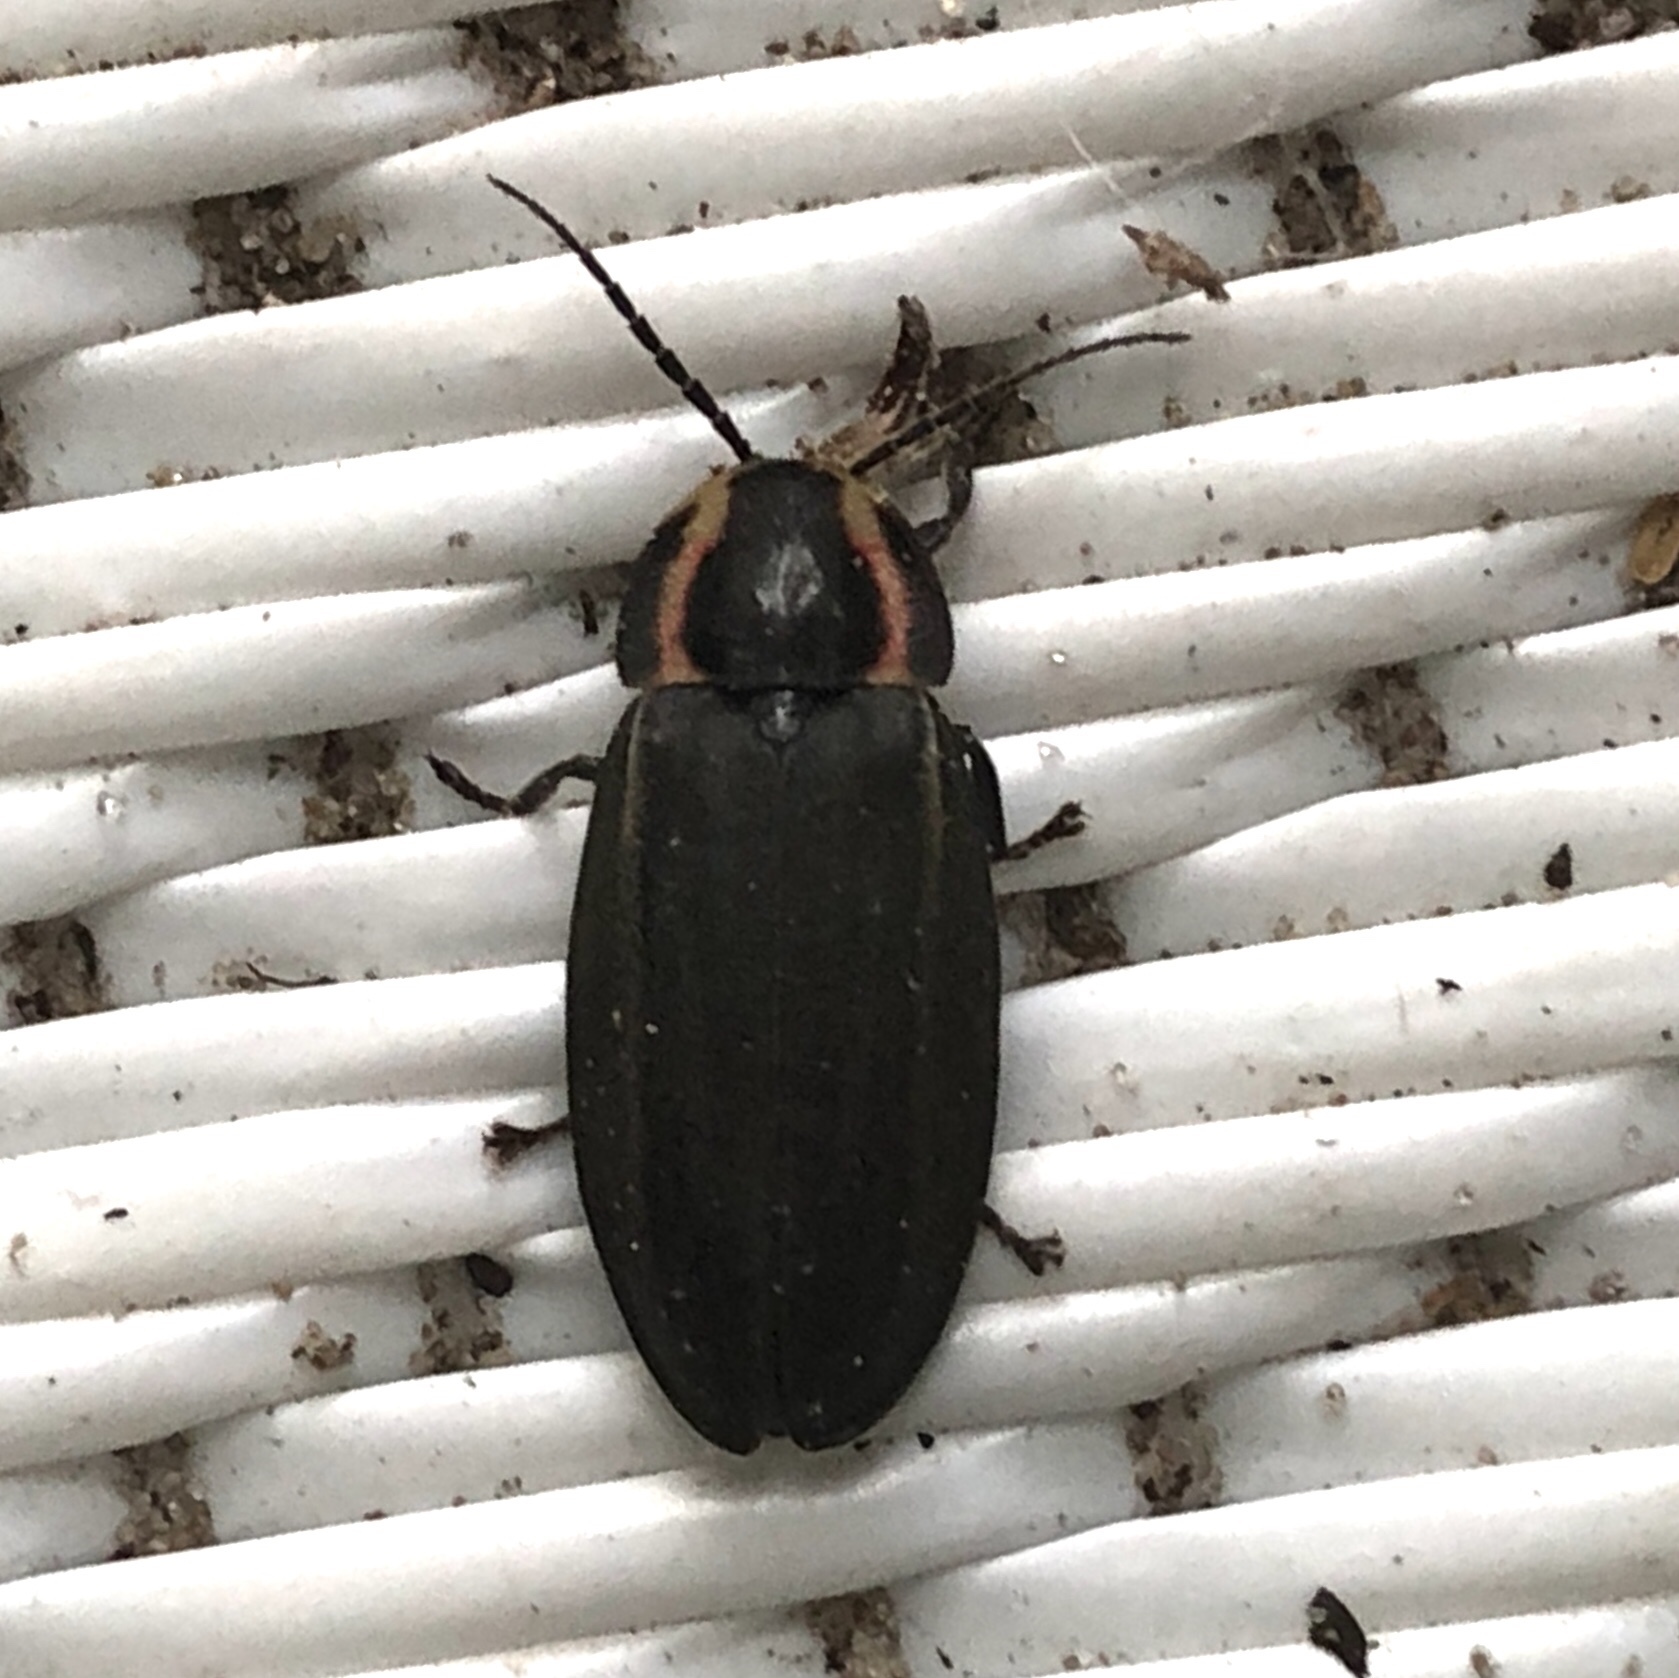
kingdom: Animalia
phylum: Arthropoda
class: Insecta
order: Coleoptera
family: Lampyridae
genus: Photinus
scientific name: Photinus corrusca
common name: Winter firefly
